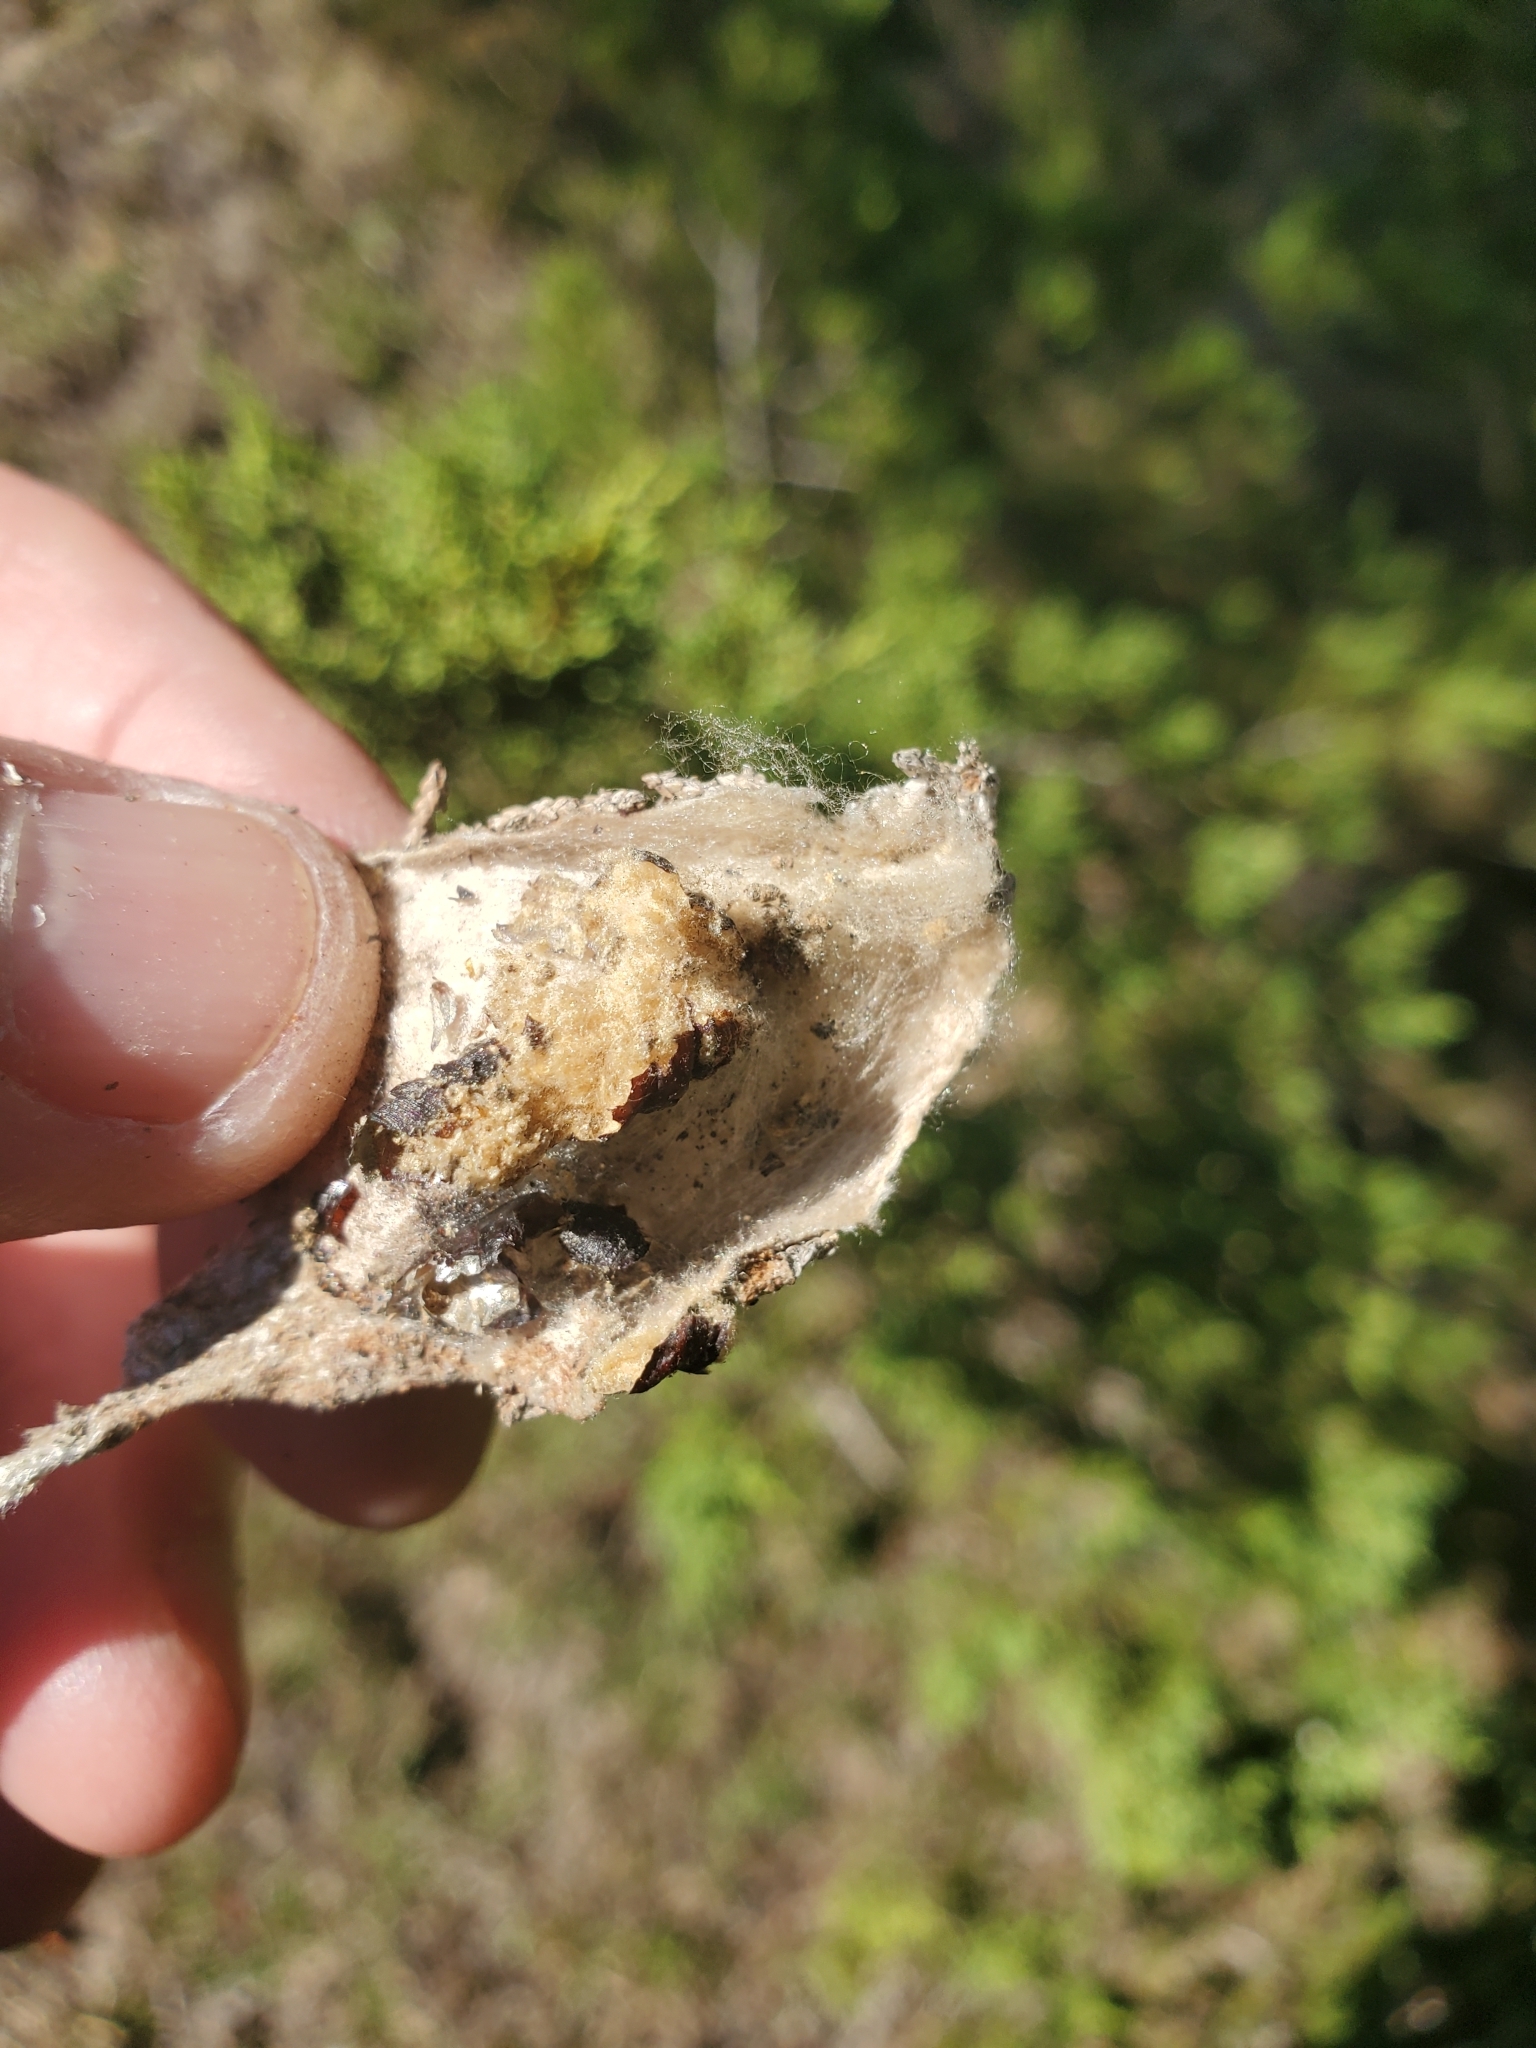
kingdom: Plantae
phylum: Tracheophyta
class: Pinopsida
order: Pinales
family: Cupressaceae
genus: Juniperus
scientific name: Juniperus virginiana
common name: Red juniper
